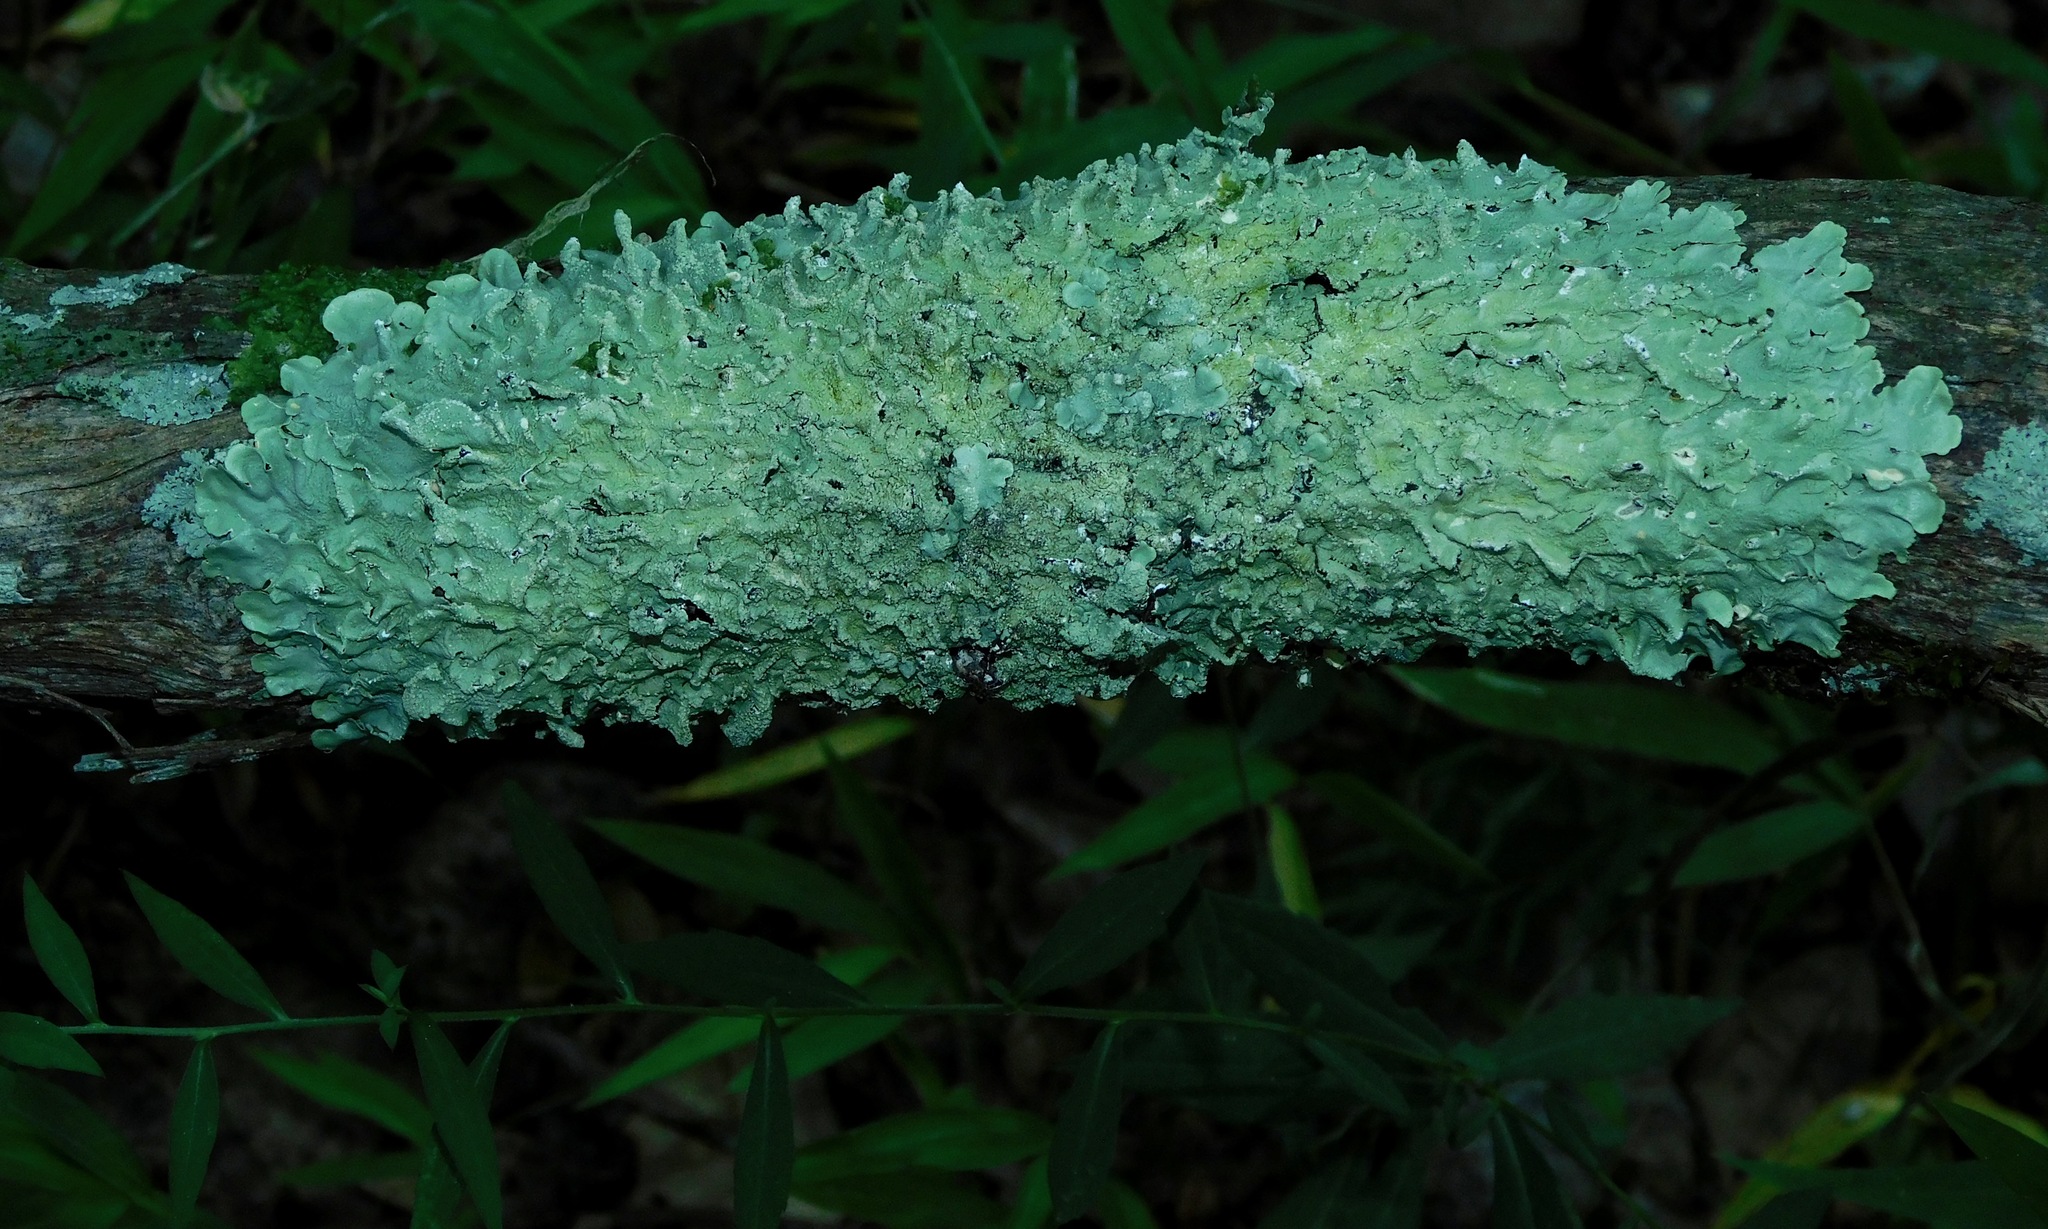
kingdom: Fungi
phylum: Ascomycota
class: Lecanoromycetes
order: Lecanorales
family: Parmeliaceae
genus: Flavoparmelia
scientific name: Flavoparmelia caperata
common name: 40-mile per hour lichen
